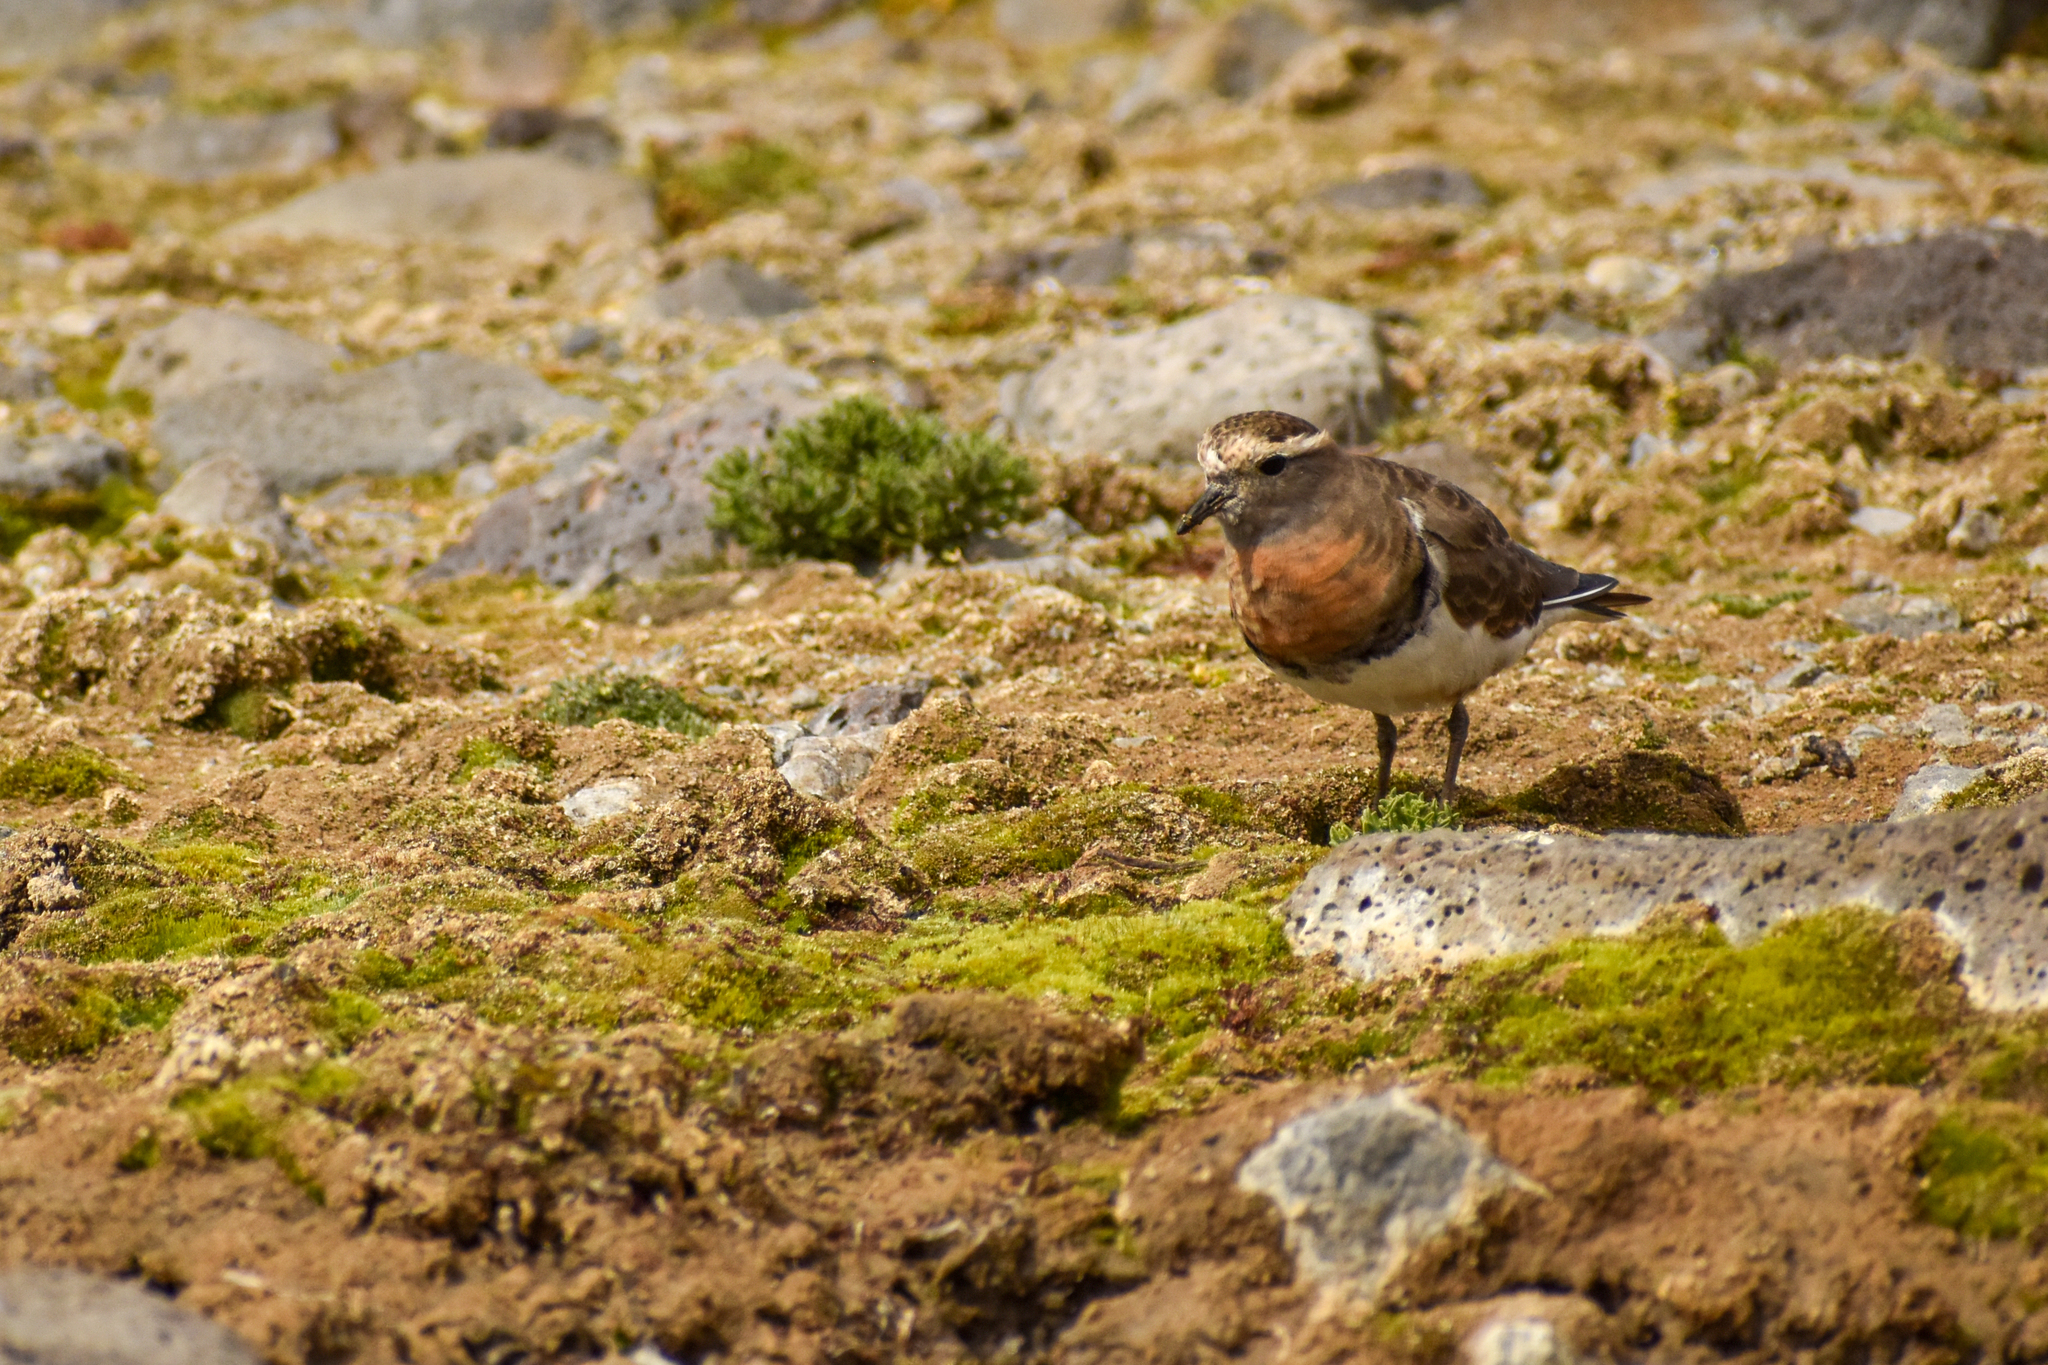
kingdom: Animalia
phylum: Chordata
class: Aves
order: Charadriiformes
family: Charadriidae
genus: Charadrius
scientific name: Charadrius modestus
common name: Rufous-chested plover
